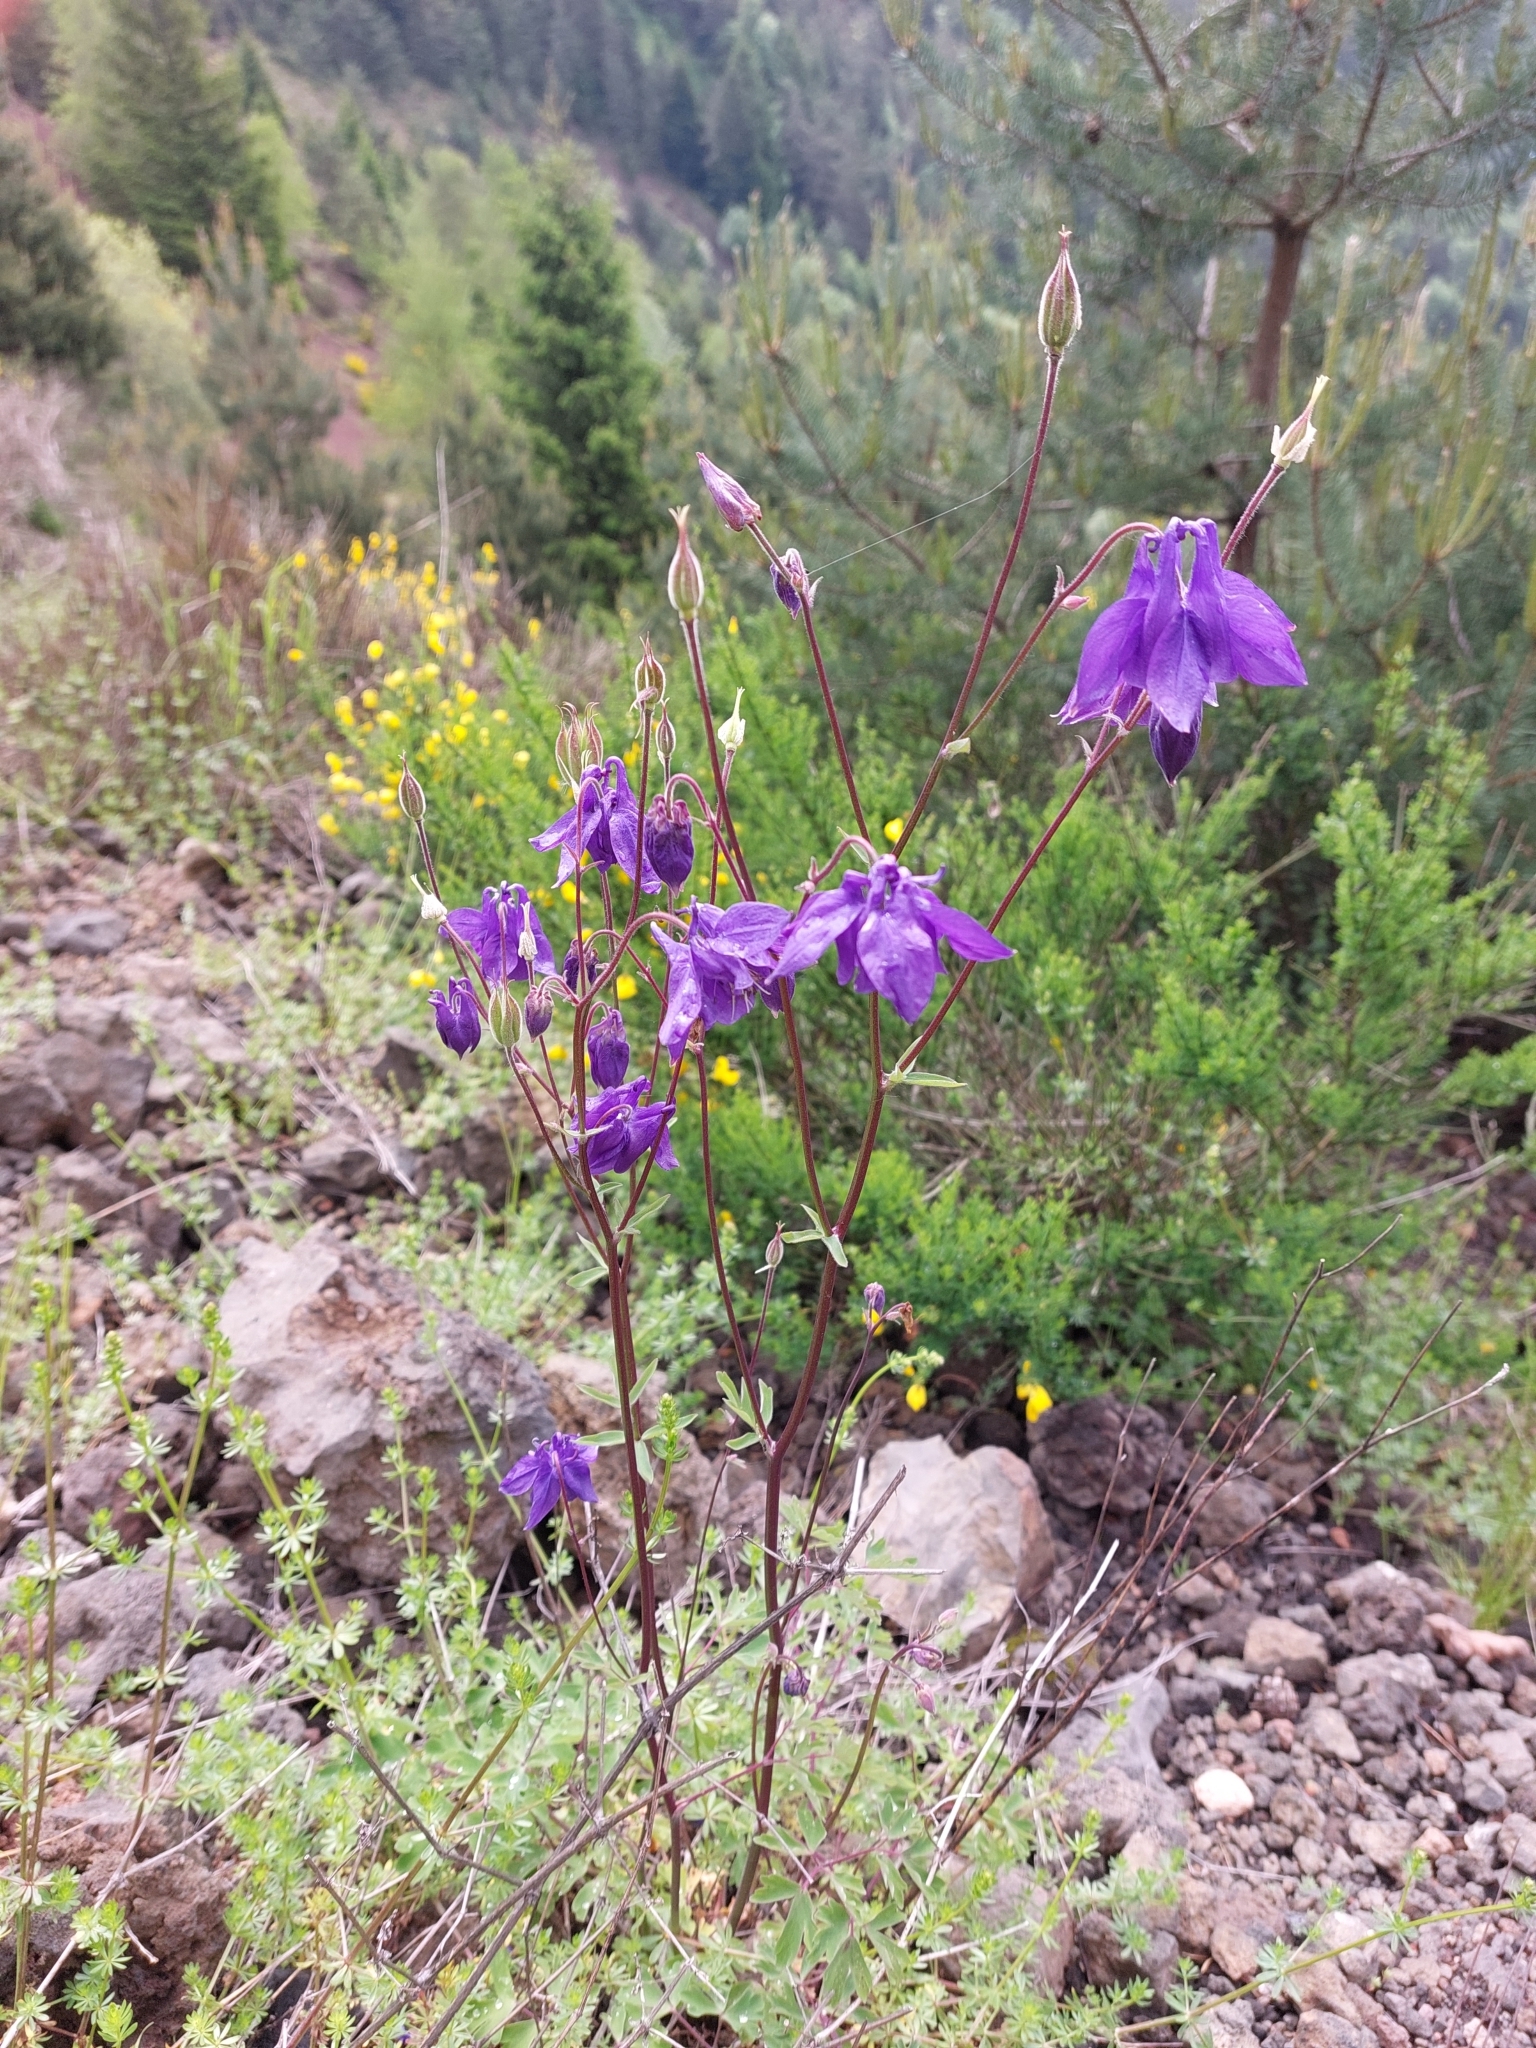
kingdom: Plantae
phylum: Tracheophyta
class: Magnoliopsida
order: Ranunculales
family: Ranunculaceae
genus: Aquilegia
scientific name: Aquilegia vulgaris
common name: Columbine
